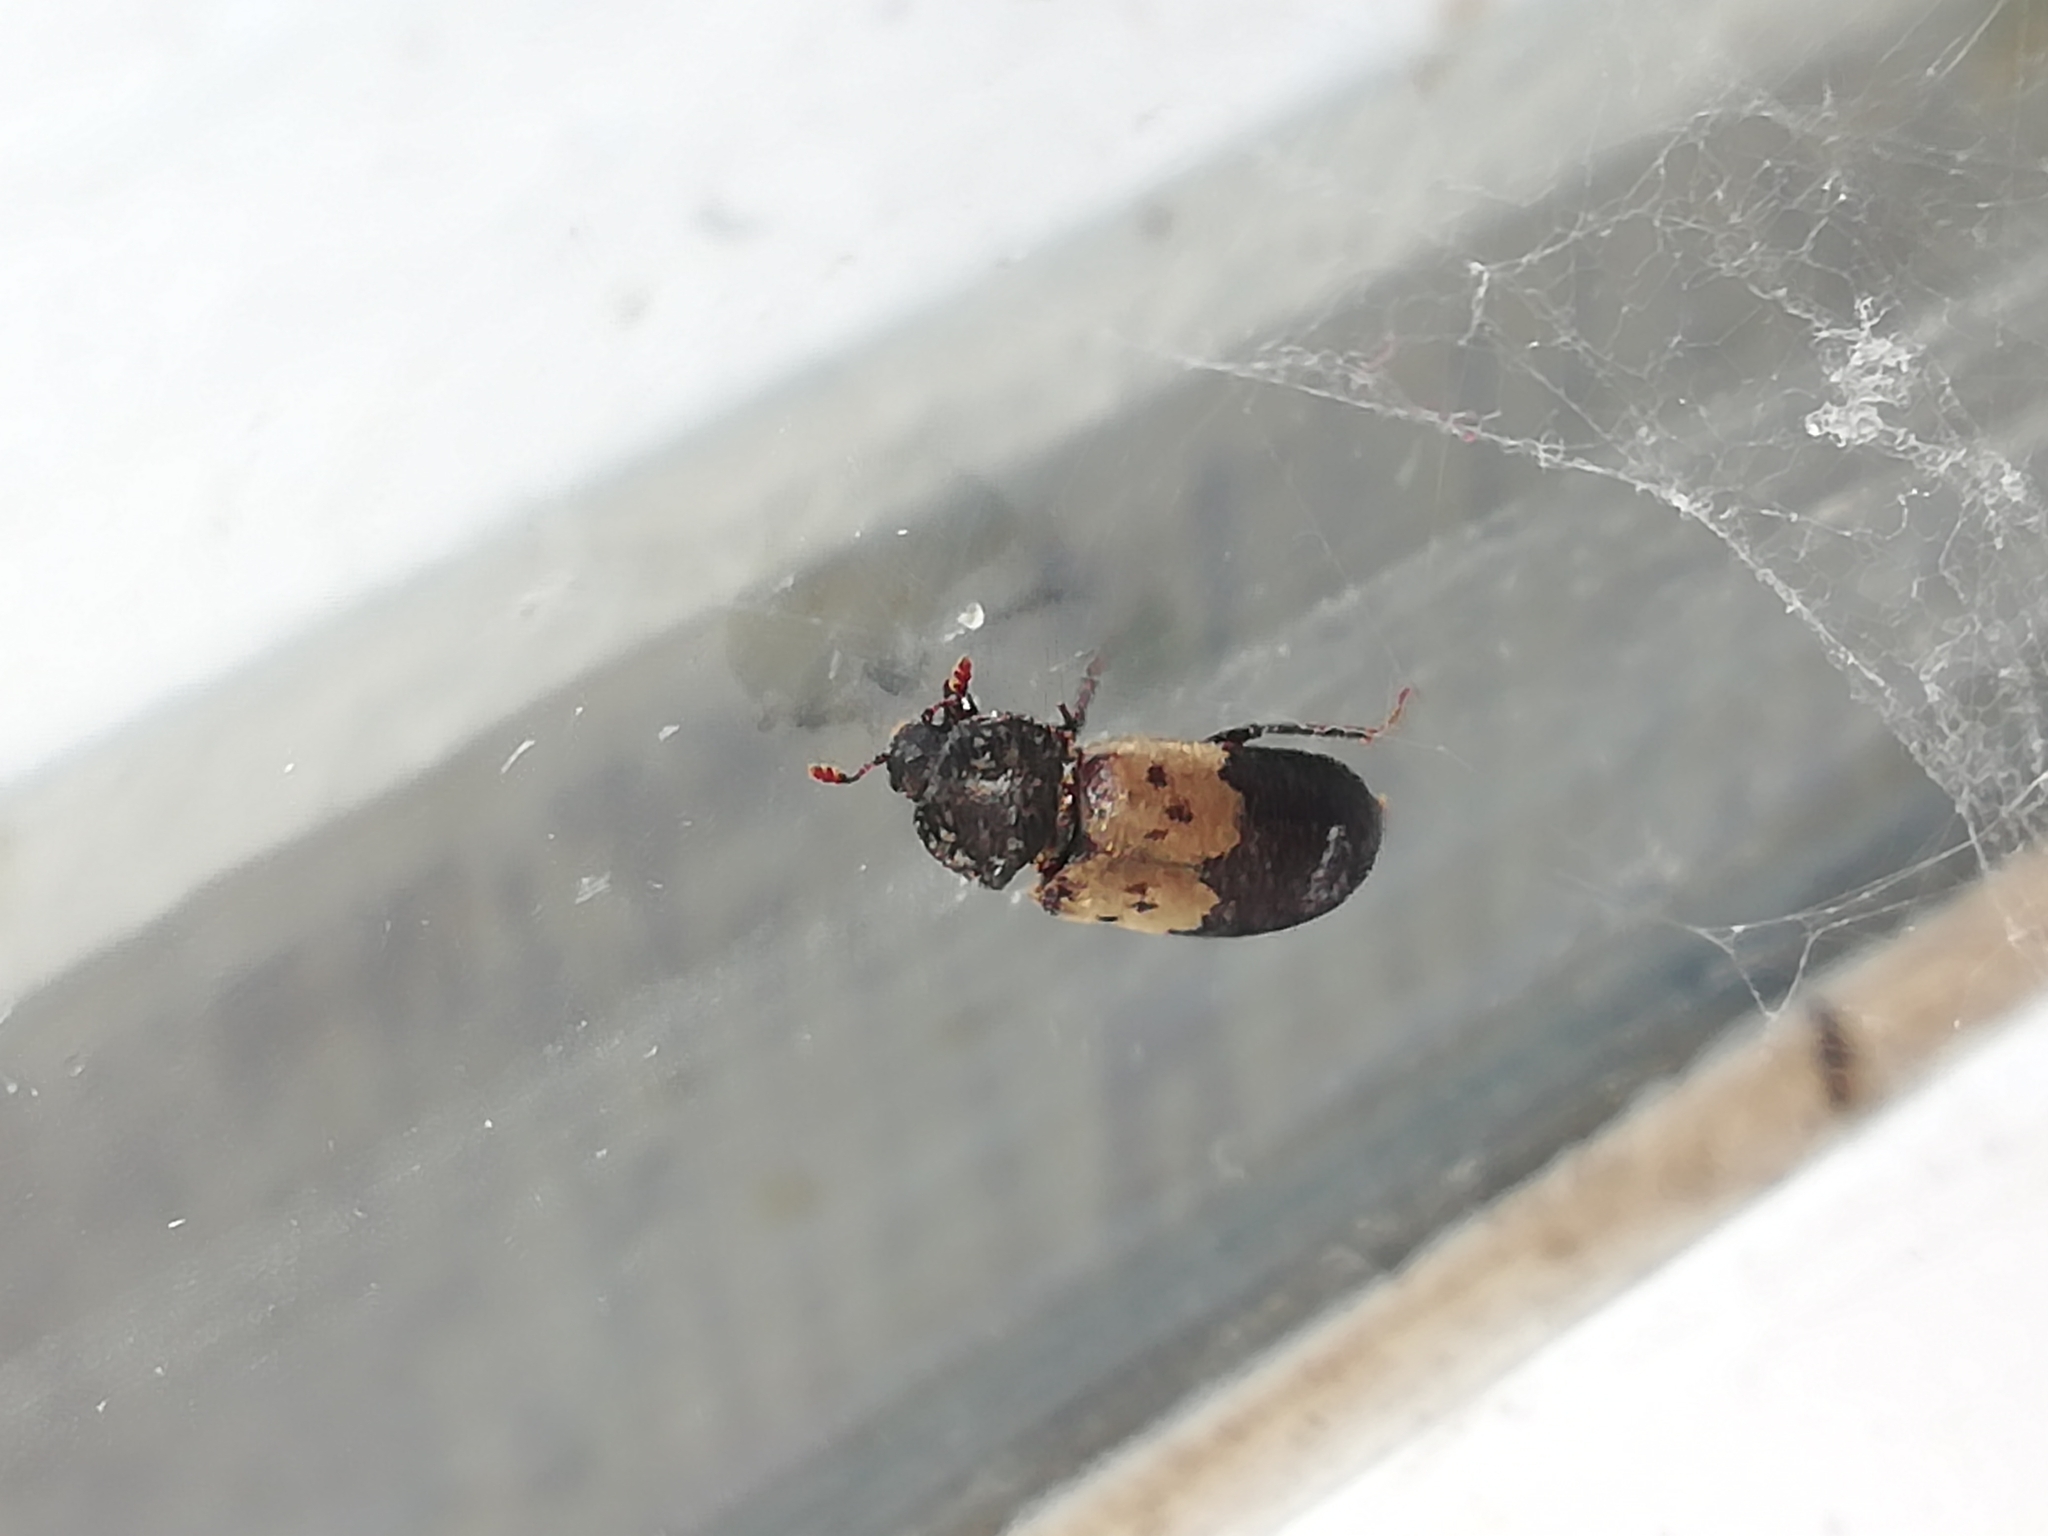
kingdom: Animalia
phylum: Arthropoda
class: Insecta
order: Coleoptera
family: Dermestidae
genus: Dermestes
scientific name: Dermestes lardarius
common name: Larder beetle
